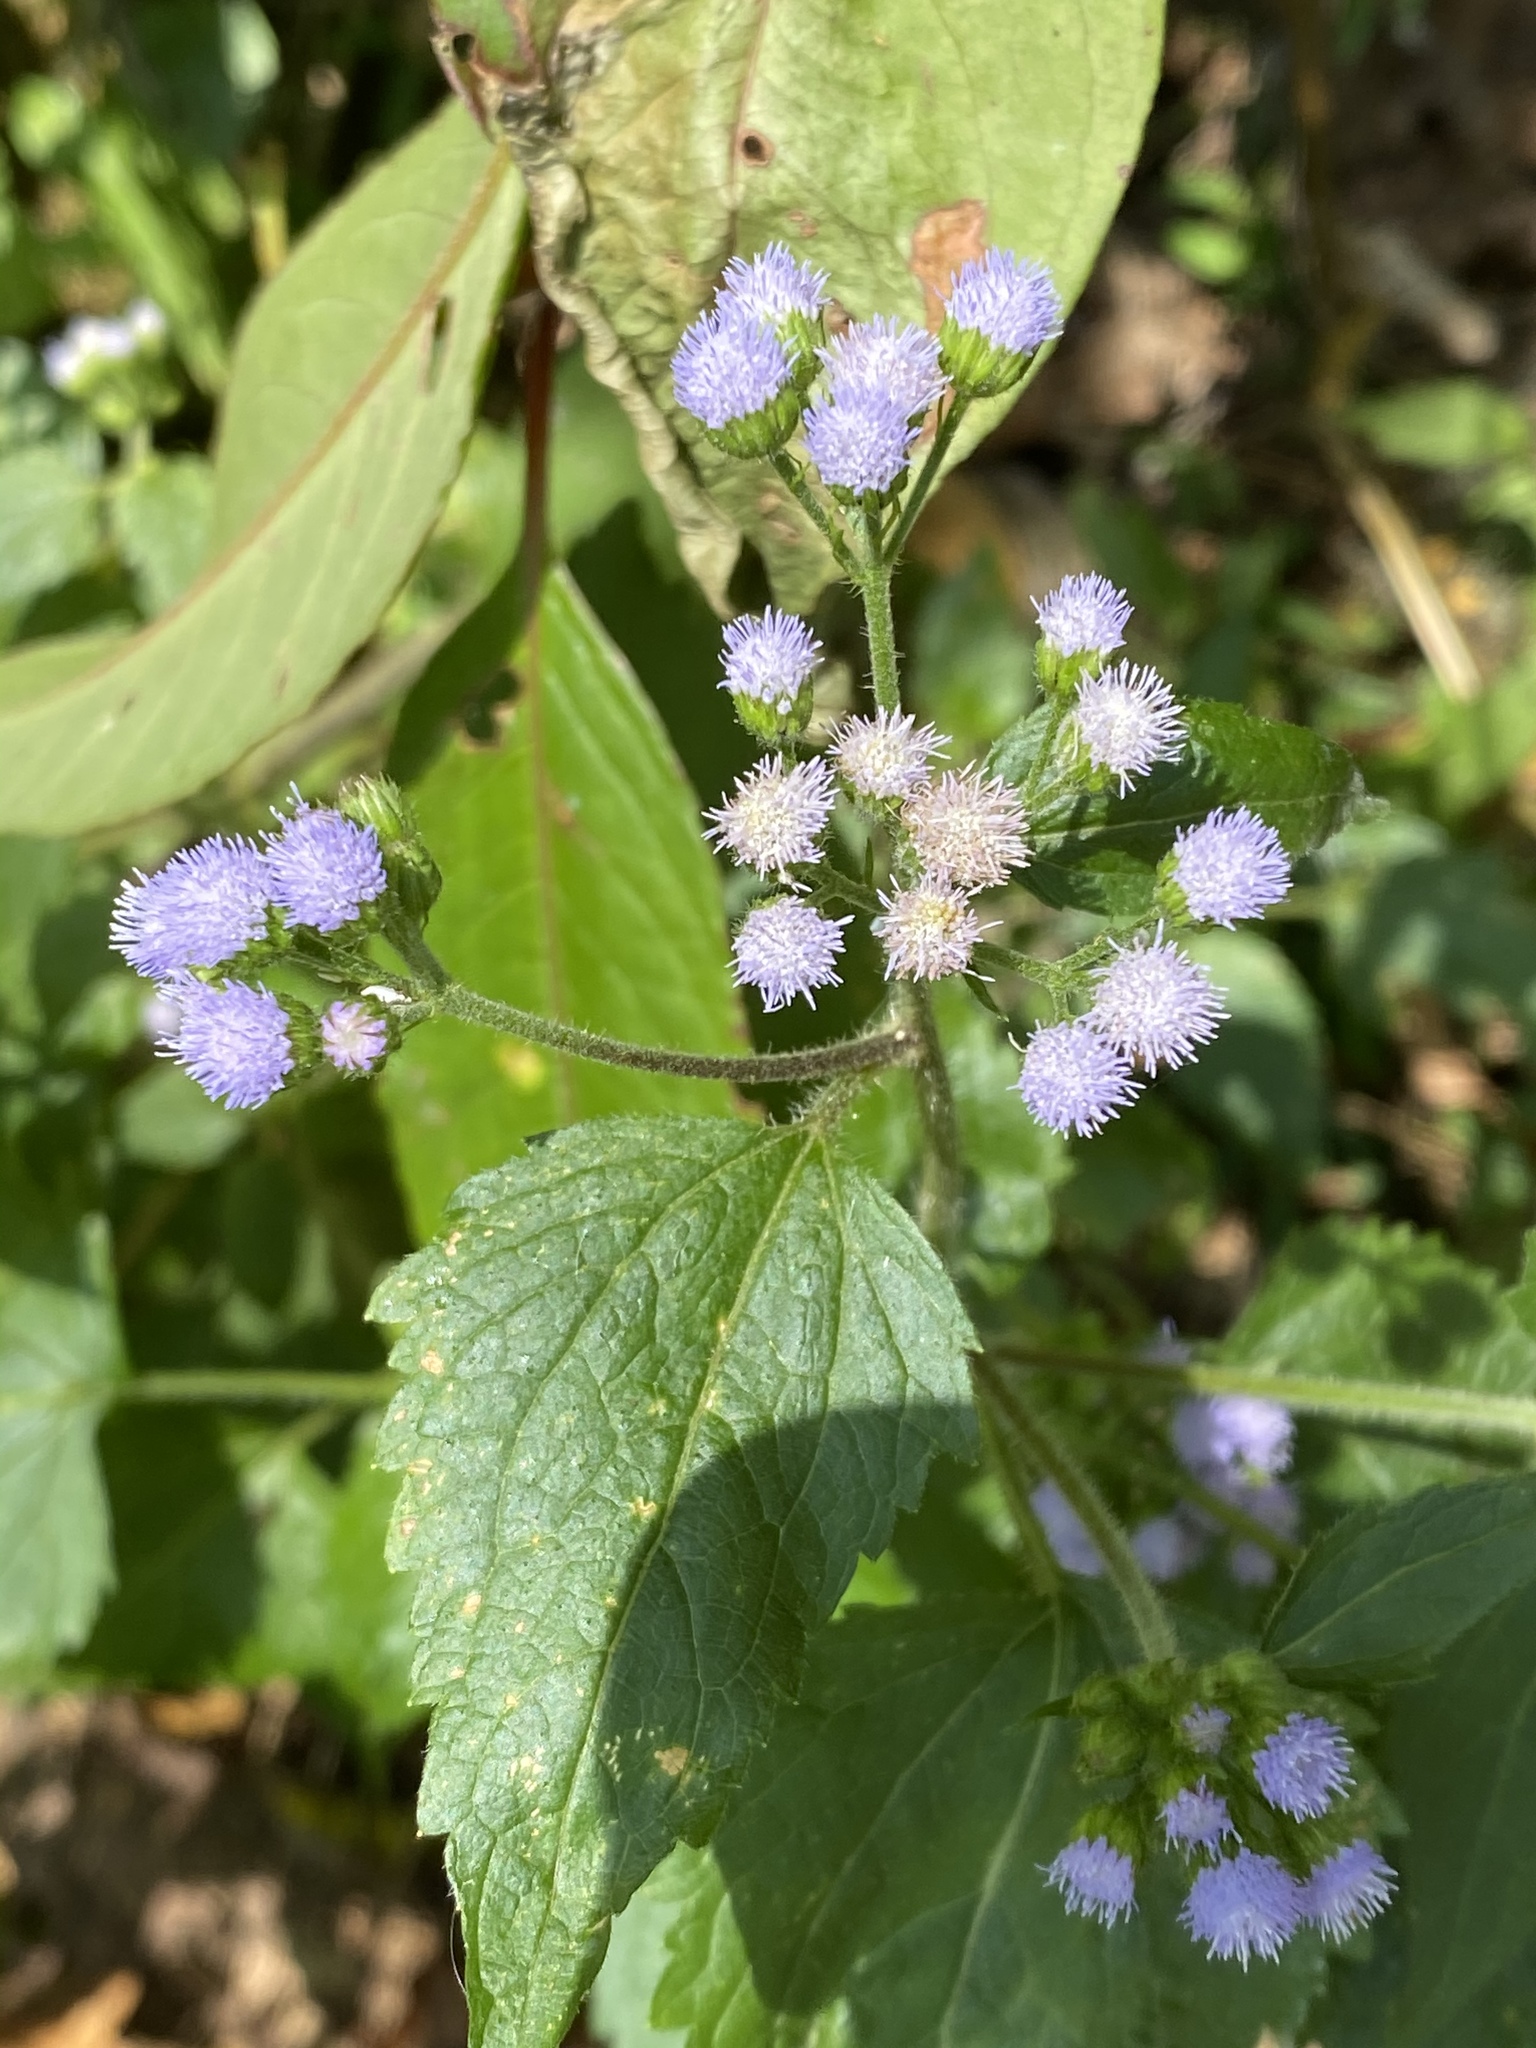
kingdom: Plantae
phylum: Tracheophyta
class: Magnoliopsida
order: Asterales
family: Asteraceae
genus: Ageratum
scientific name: Ageratum conyzoides
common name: Tropical whiteweed
